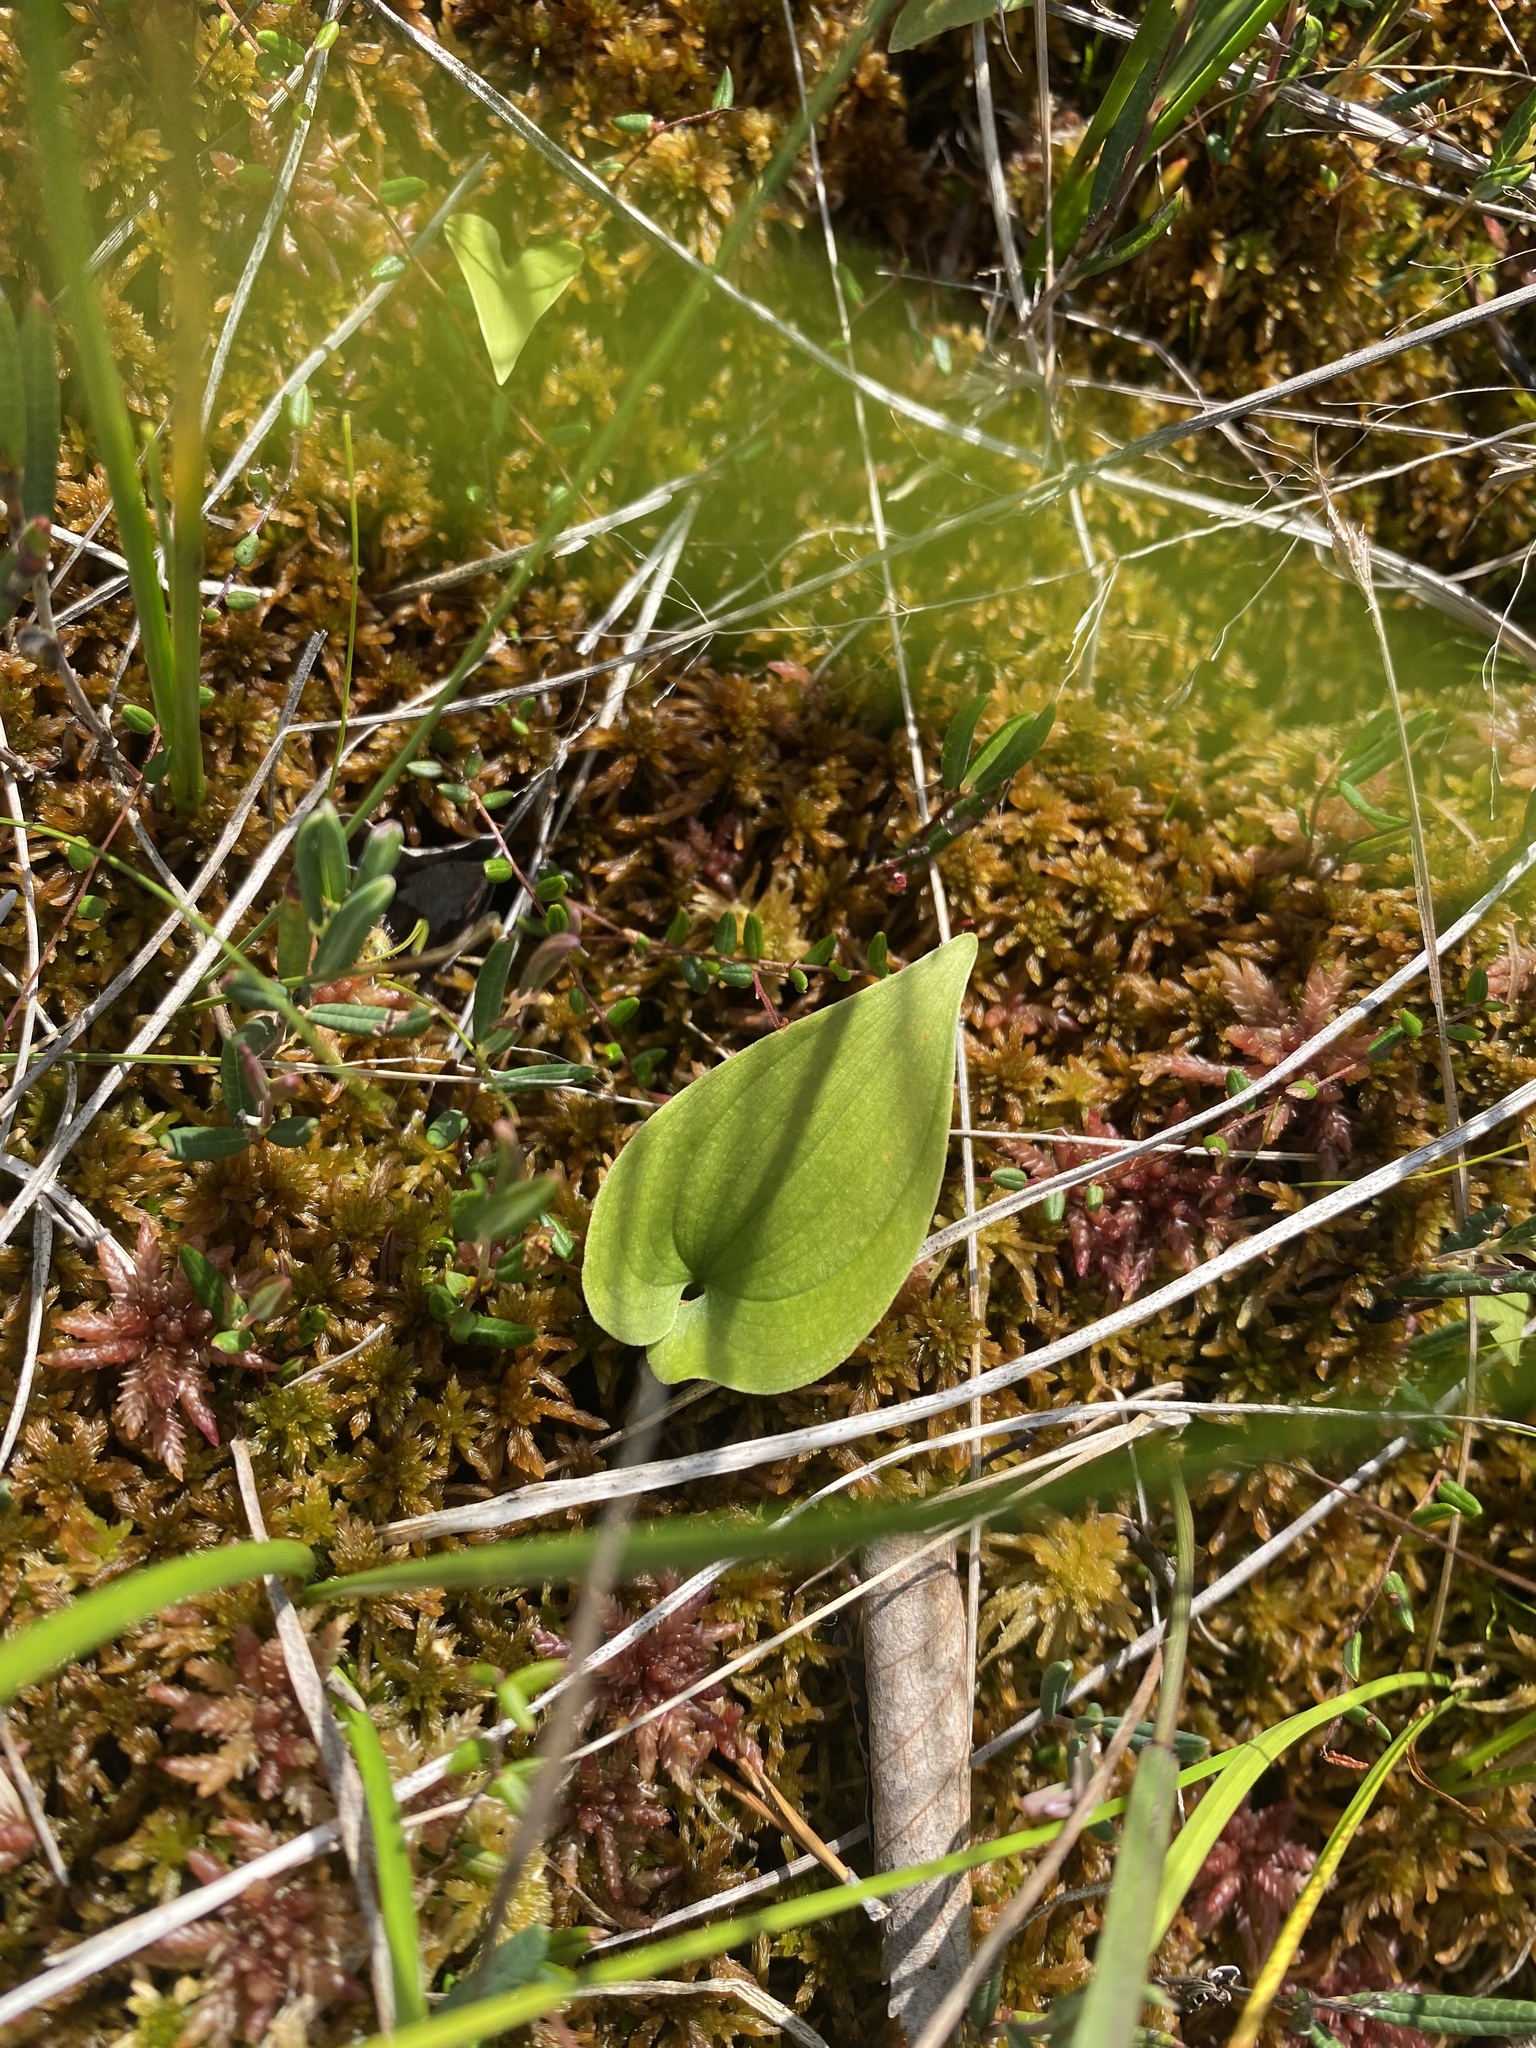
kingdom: Plantae
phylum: Tracheophyta
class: Liliopsida
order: Asparagales
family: Asparagaceae
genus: Maianthemum
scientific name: Maianthemum bifolium
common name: May lily
